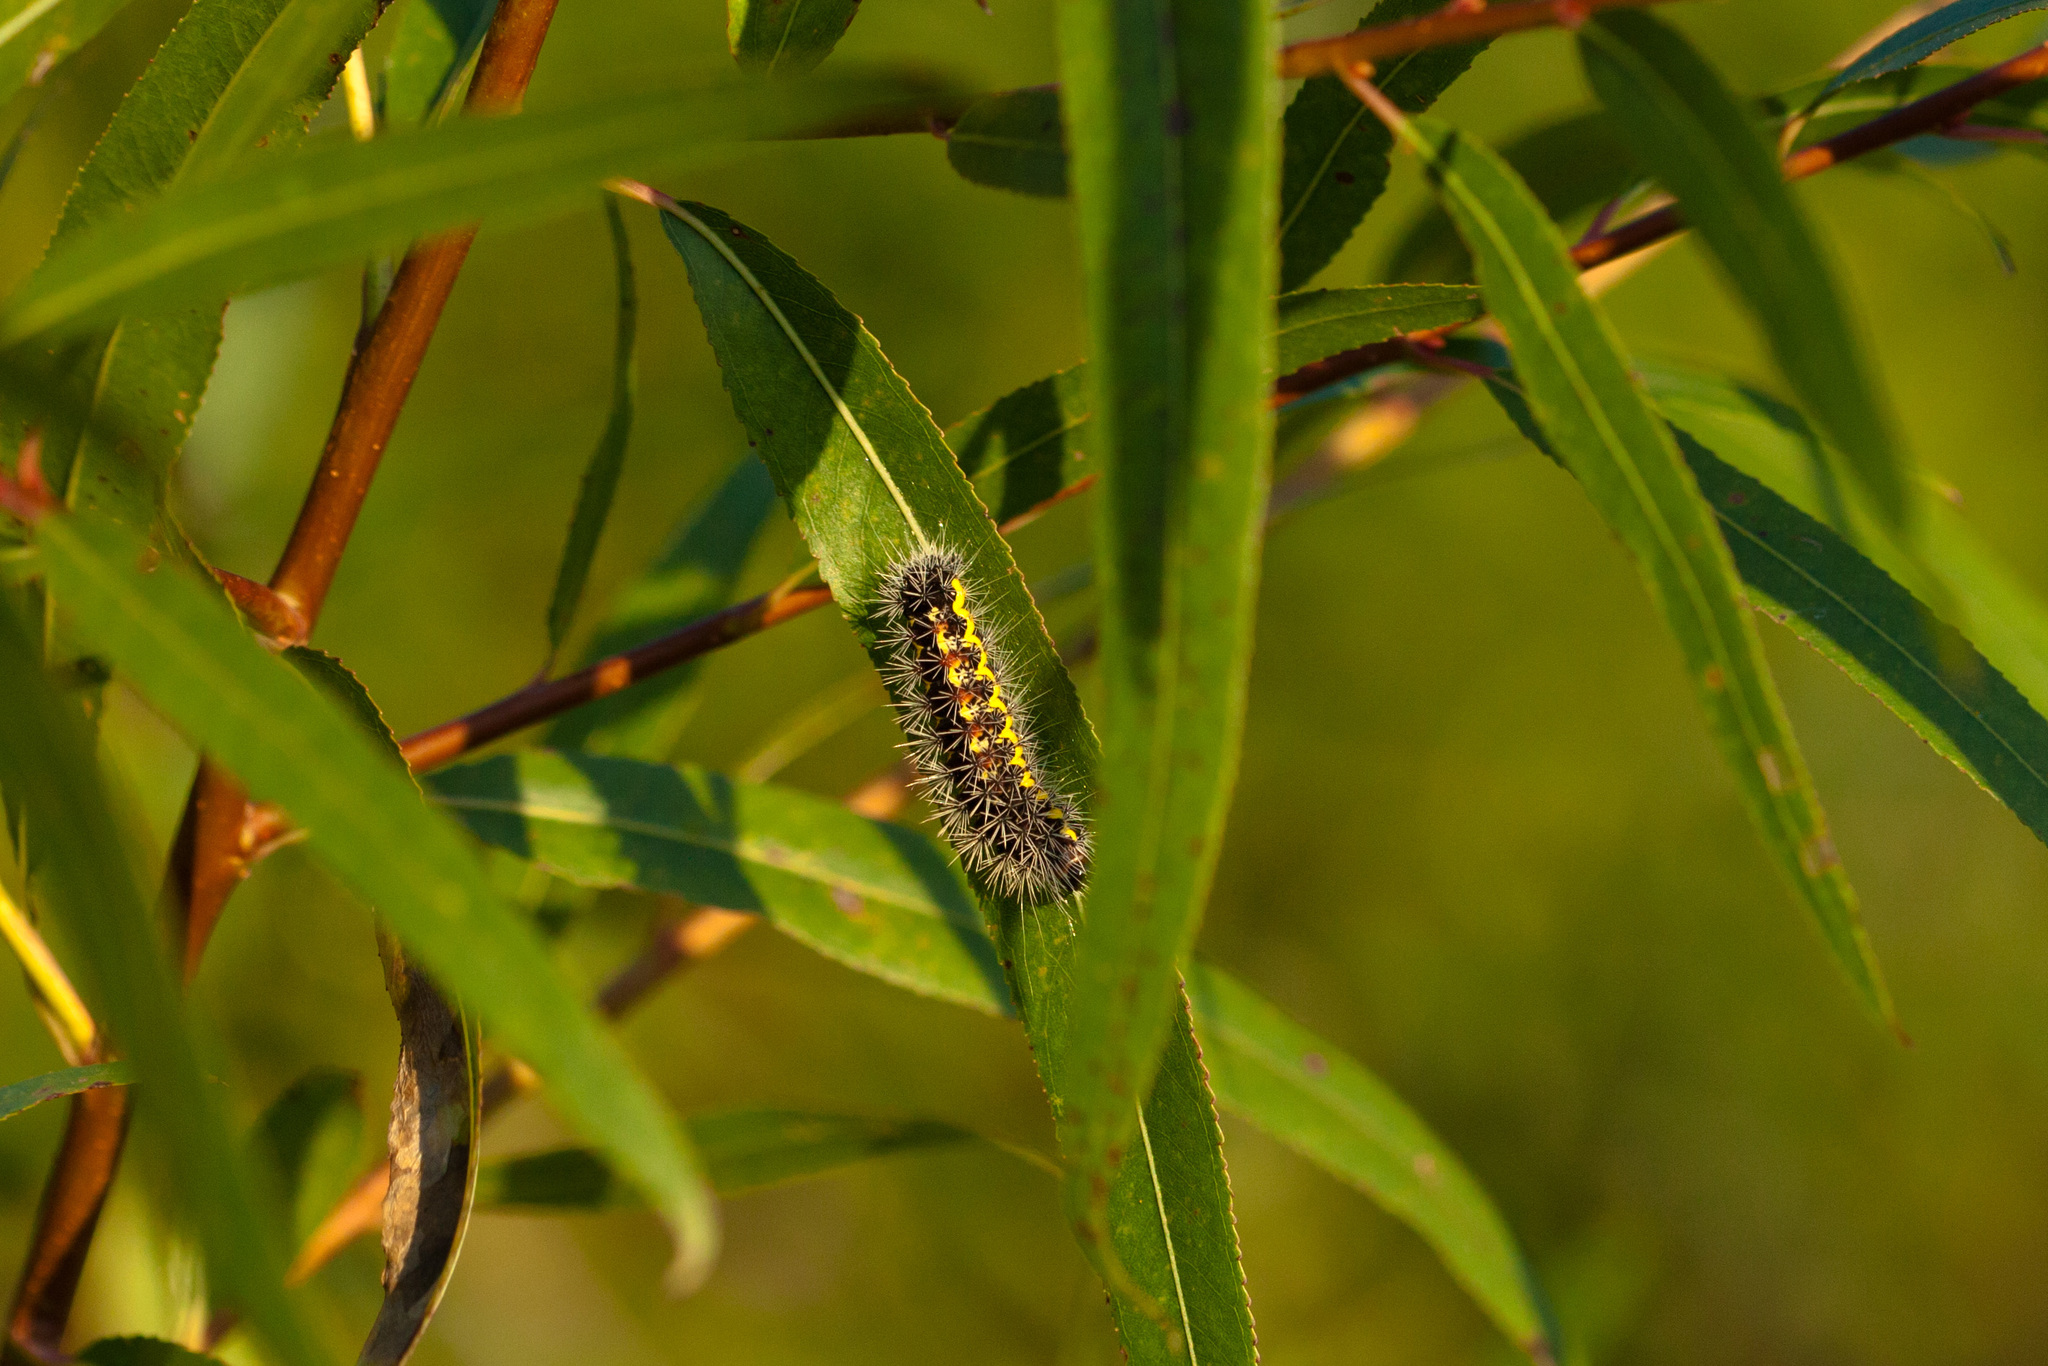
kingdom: Animalia
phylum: Arthropoda
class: Insecta
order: Lepidoptera
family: Noctuidae
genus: Acronicta
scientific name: Acronicta oblinita
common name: Smeared dagger
